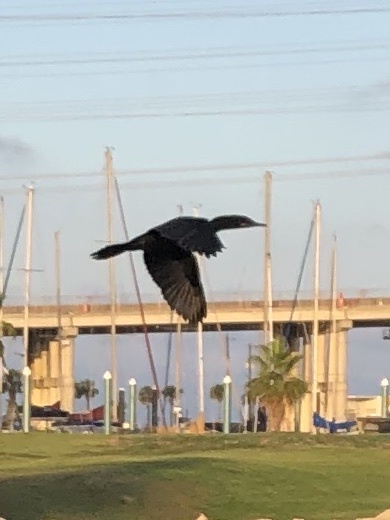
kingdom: Animalia
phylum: Chordata
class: Aves
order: Suliformes
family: Phalacrocoracidae
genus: Phalacrocorax
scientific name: Phalacrocorax auritus
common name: Double-crested cormorant
